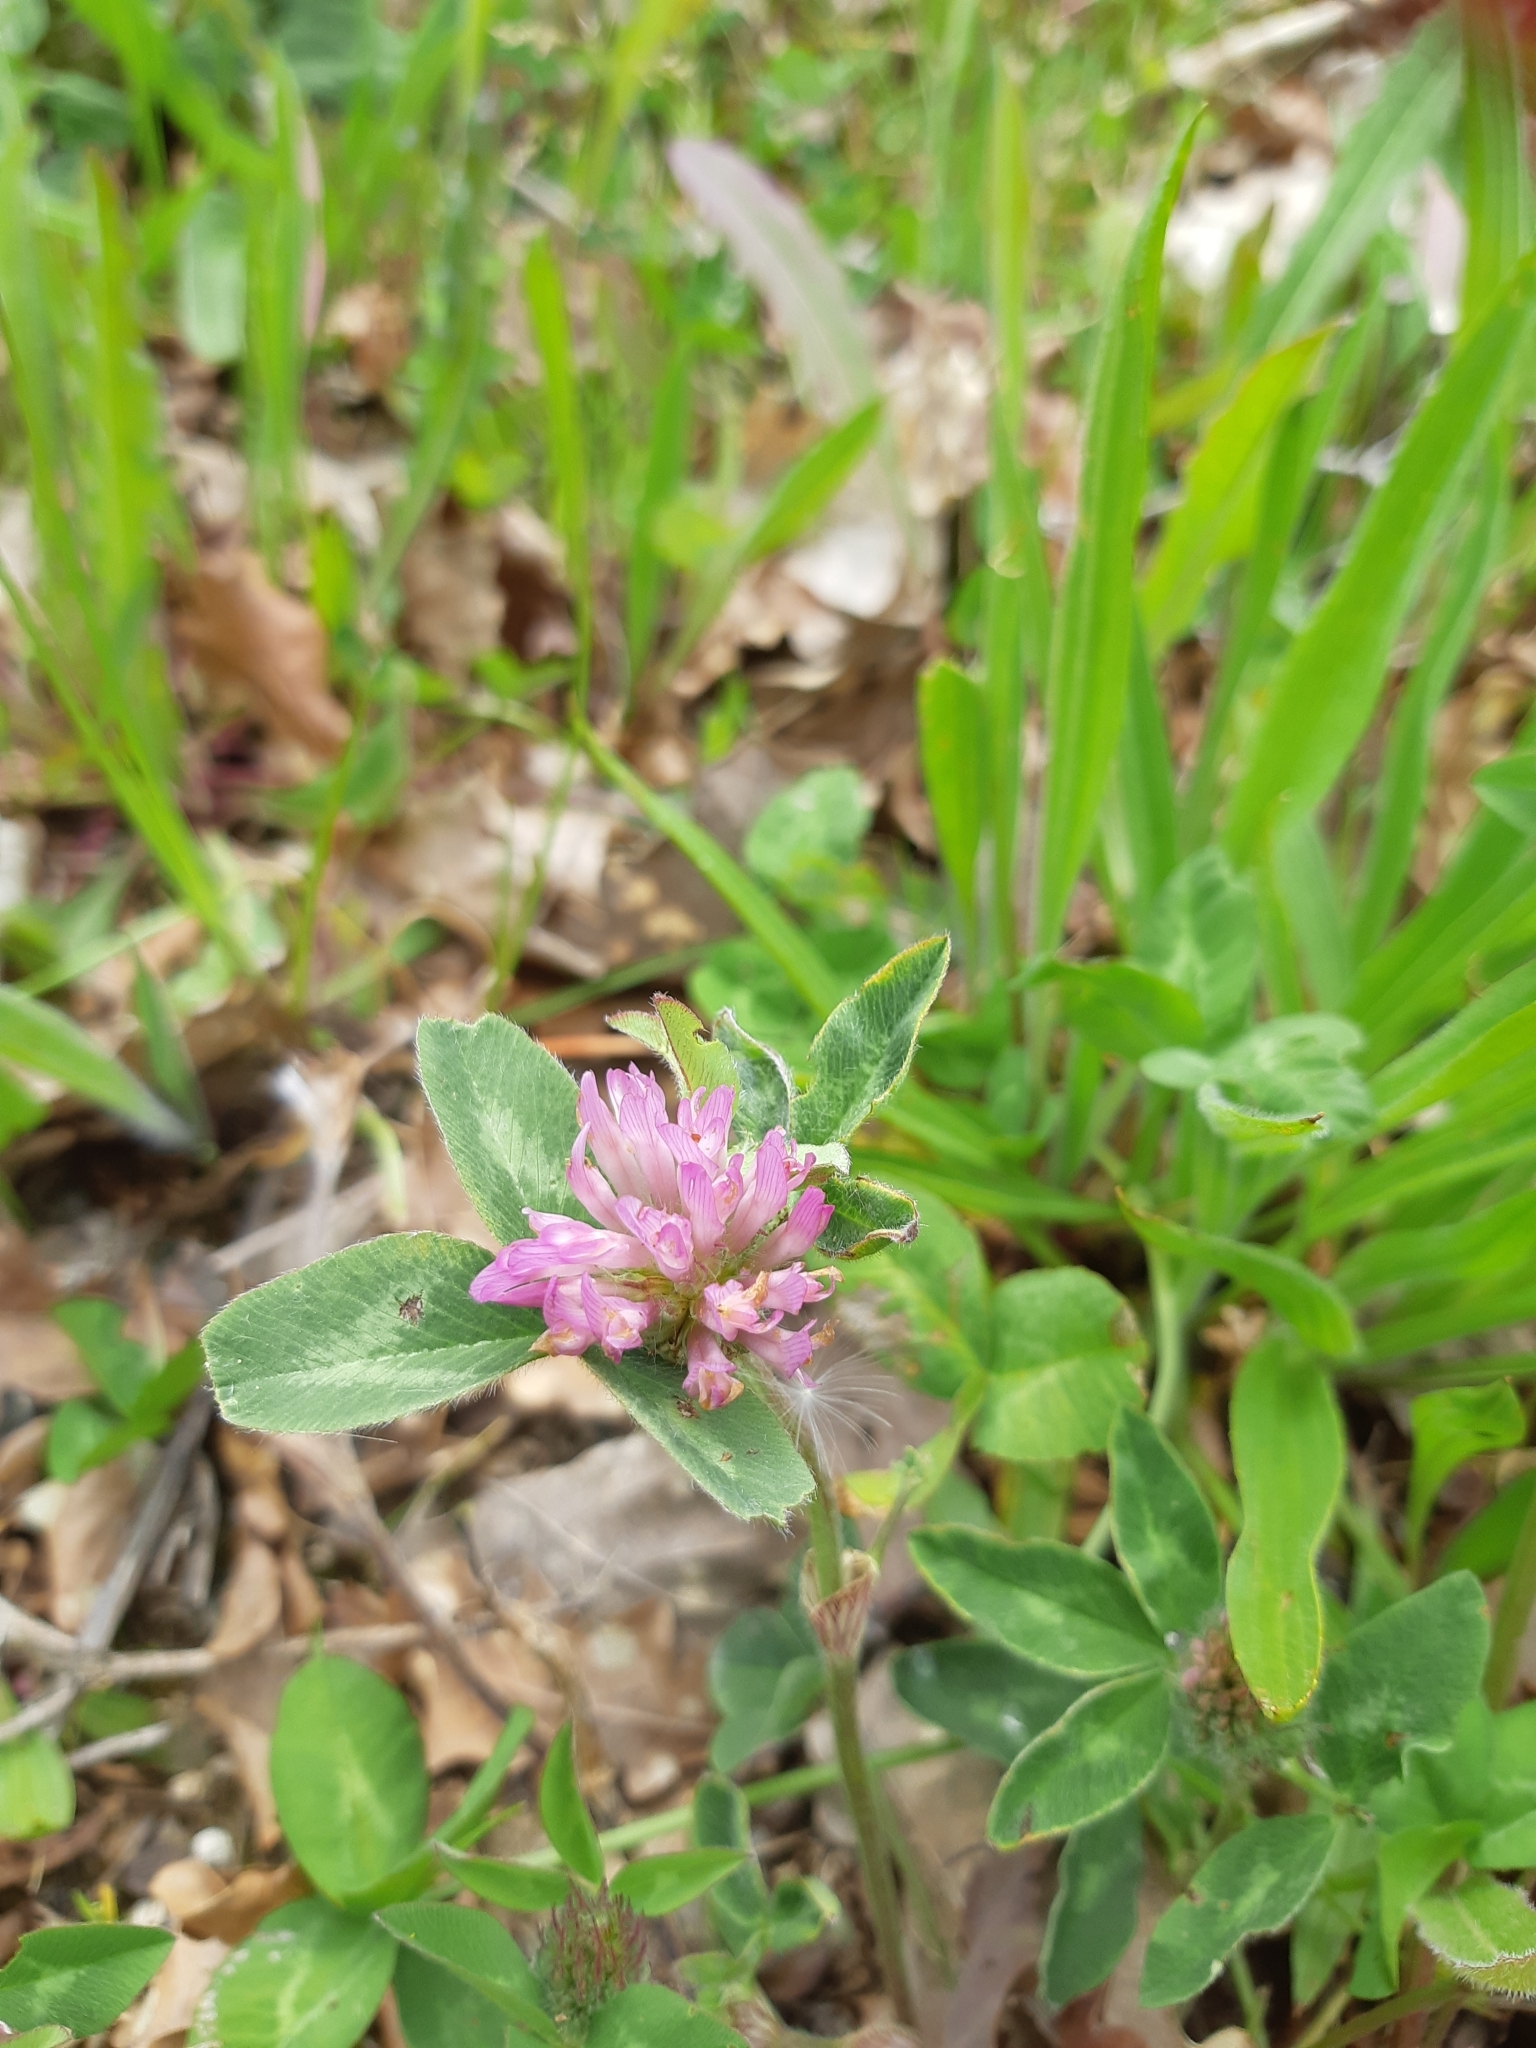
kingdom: Plantae
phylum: Tracheophyta
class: Magnoliopsida
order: Fabales
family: Fabaceae
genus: Trifolium
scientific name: Trifolium pratense
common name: Red clover
